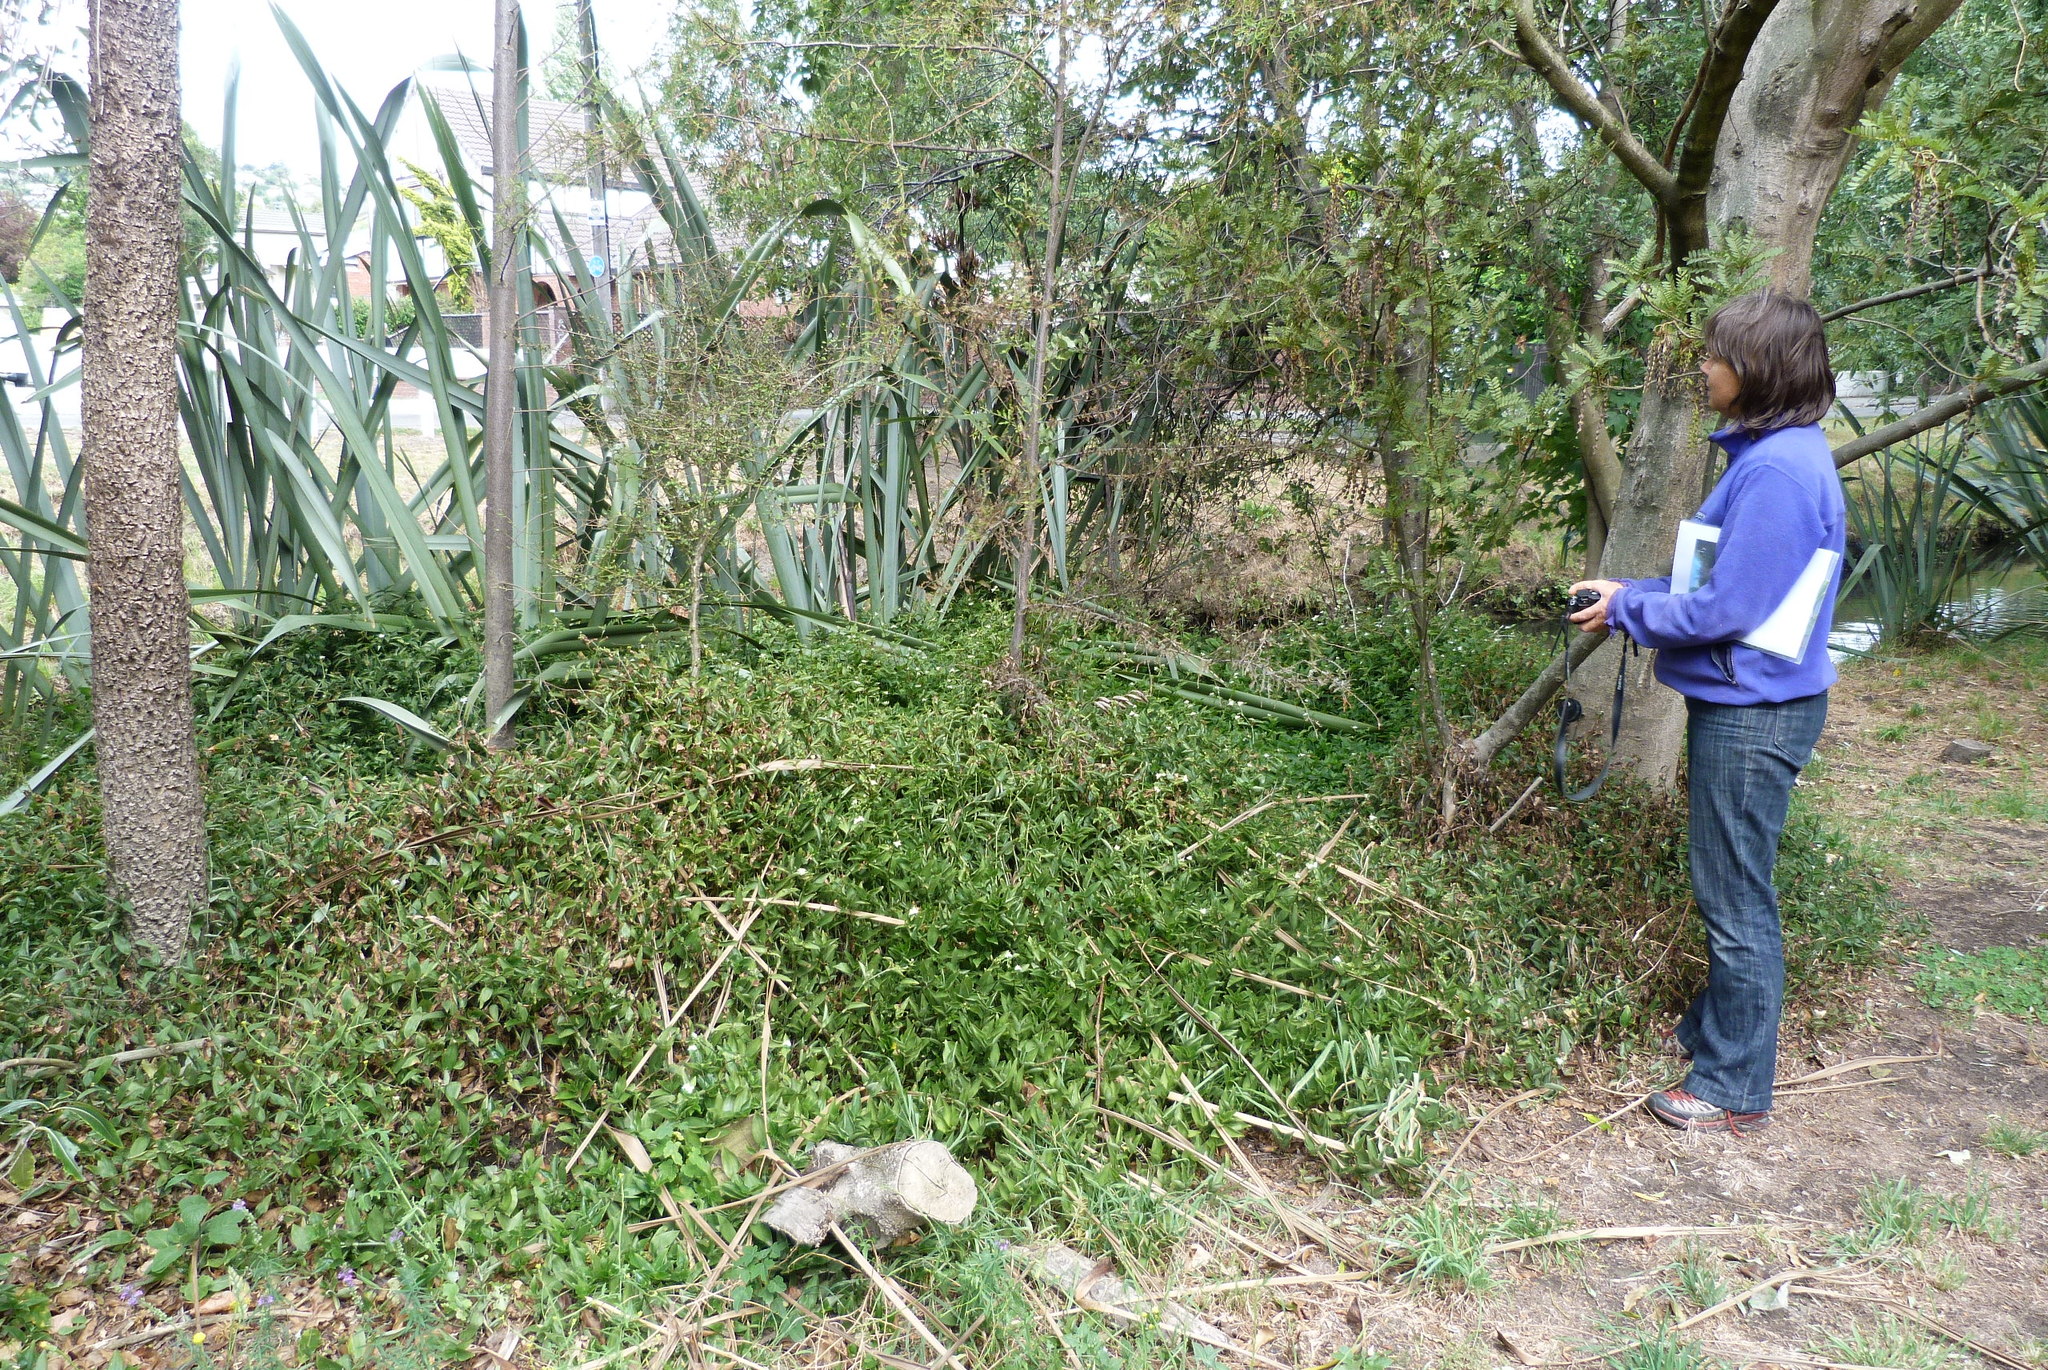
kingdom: Plantae
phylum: Tracheophyta
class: Liliopsida
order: Commelinales
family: Commelinaceae
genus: Tradescantia
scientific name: Tradescantia fluminensis
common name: Wandering-jew
